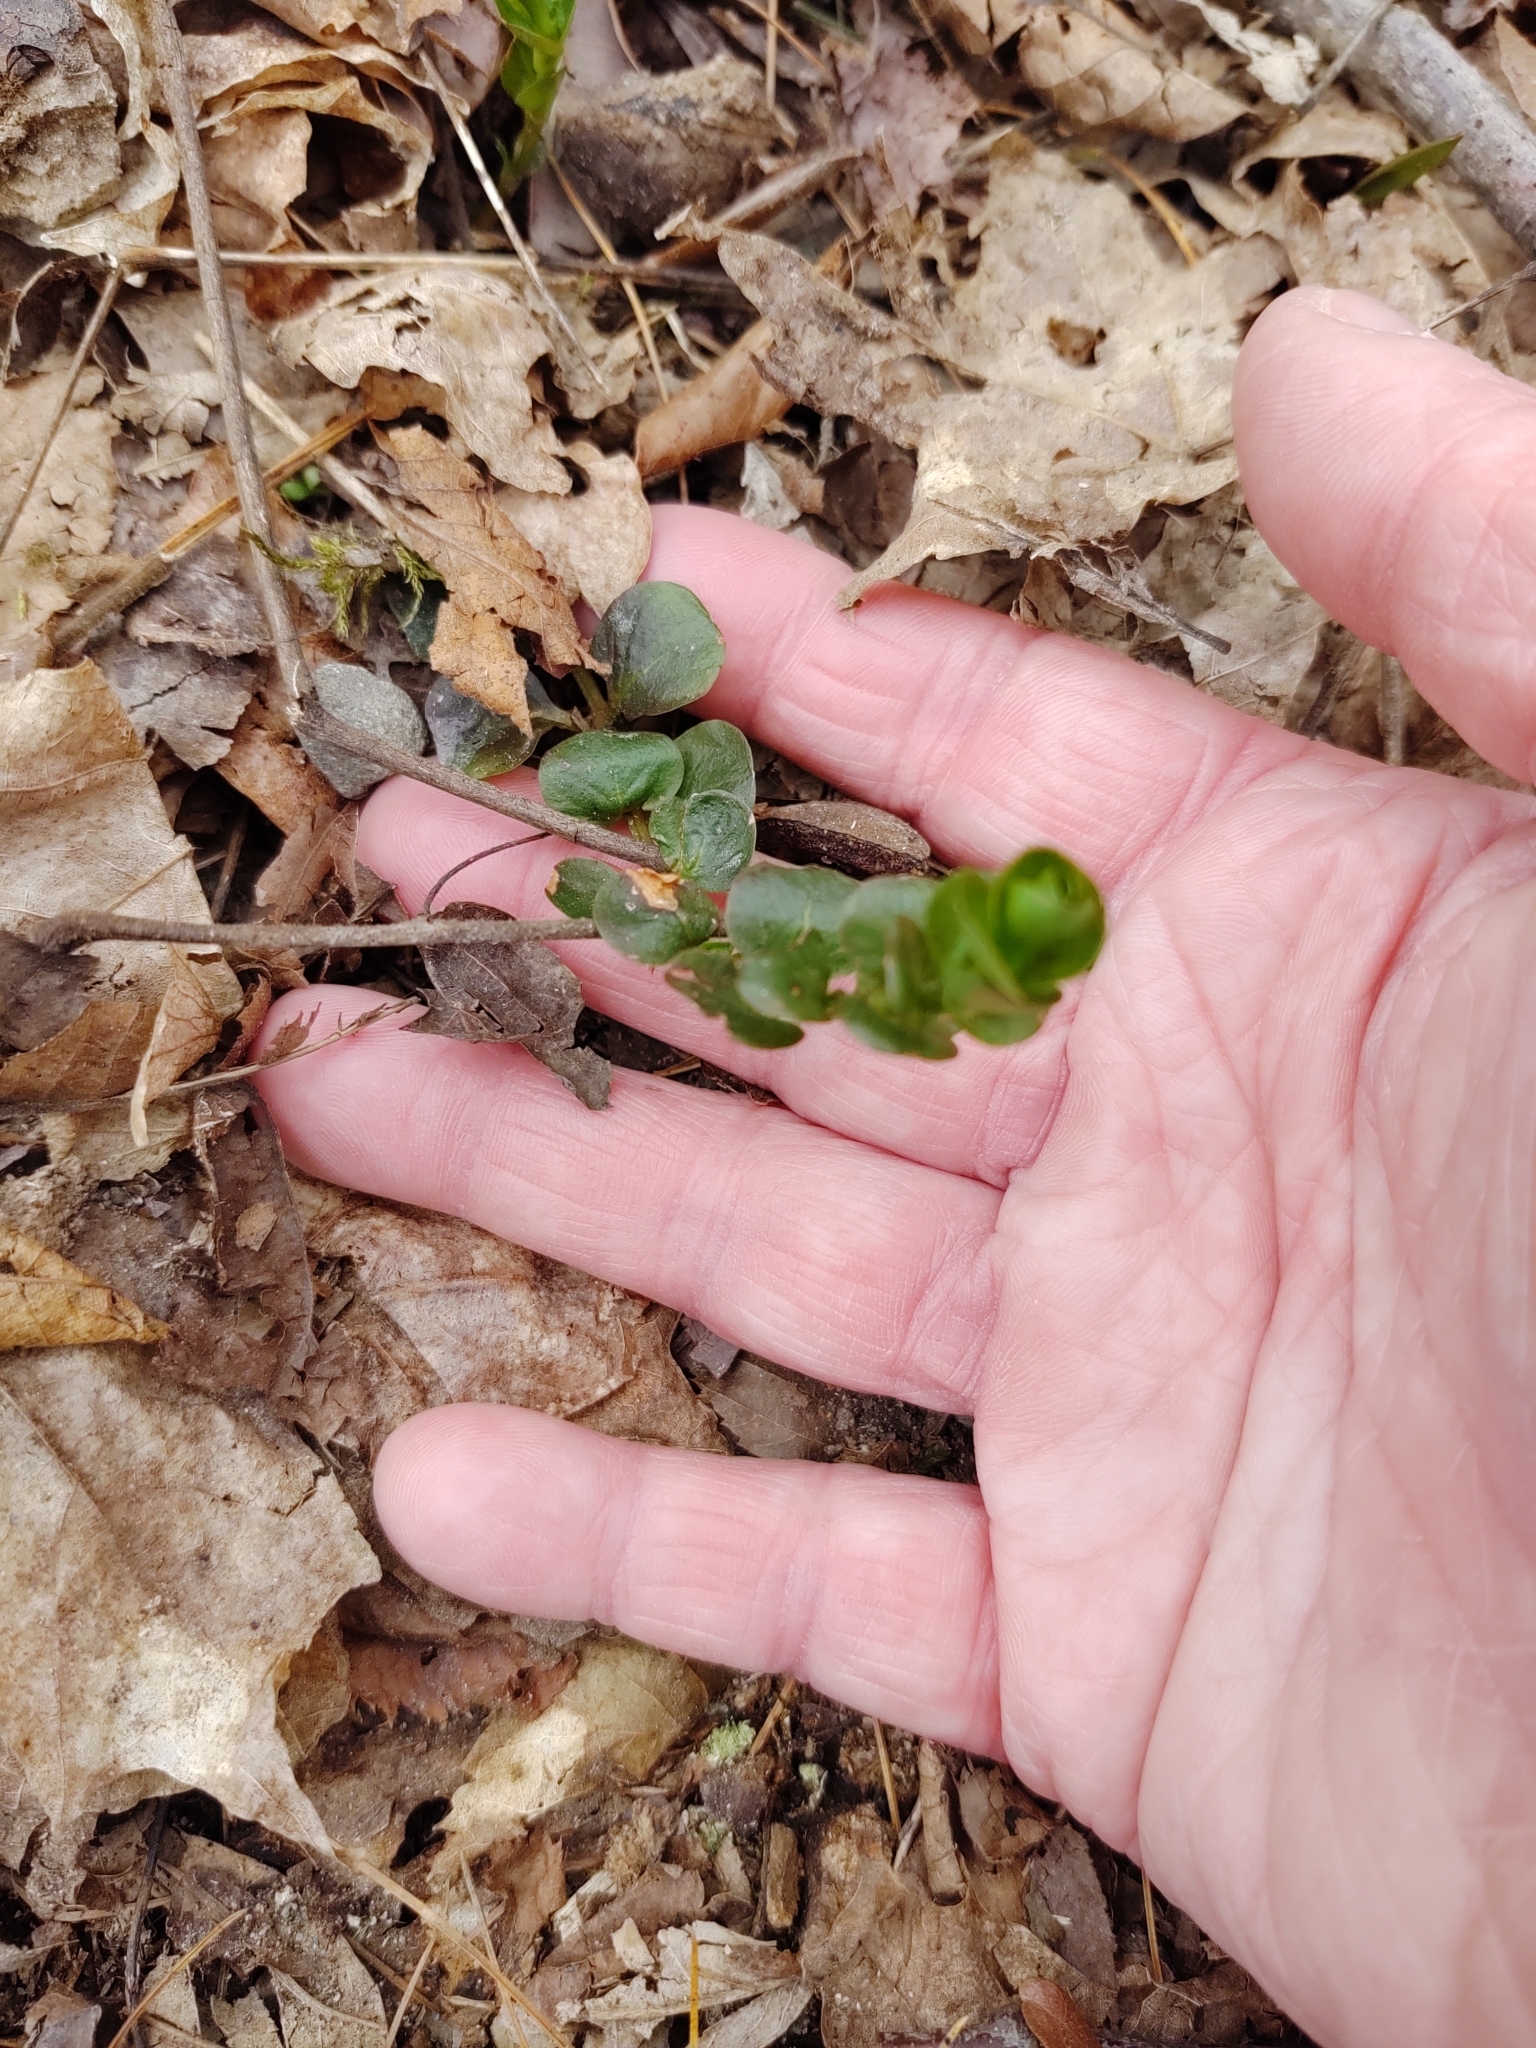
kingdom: Plantae
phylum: Tracheophyta
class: Magnoliopsida
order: Ericales
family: Primulaceae
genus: Lysimachia
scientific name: Lysimachia nummularia
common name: Moneywort
